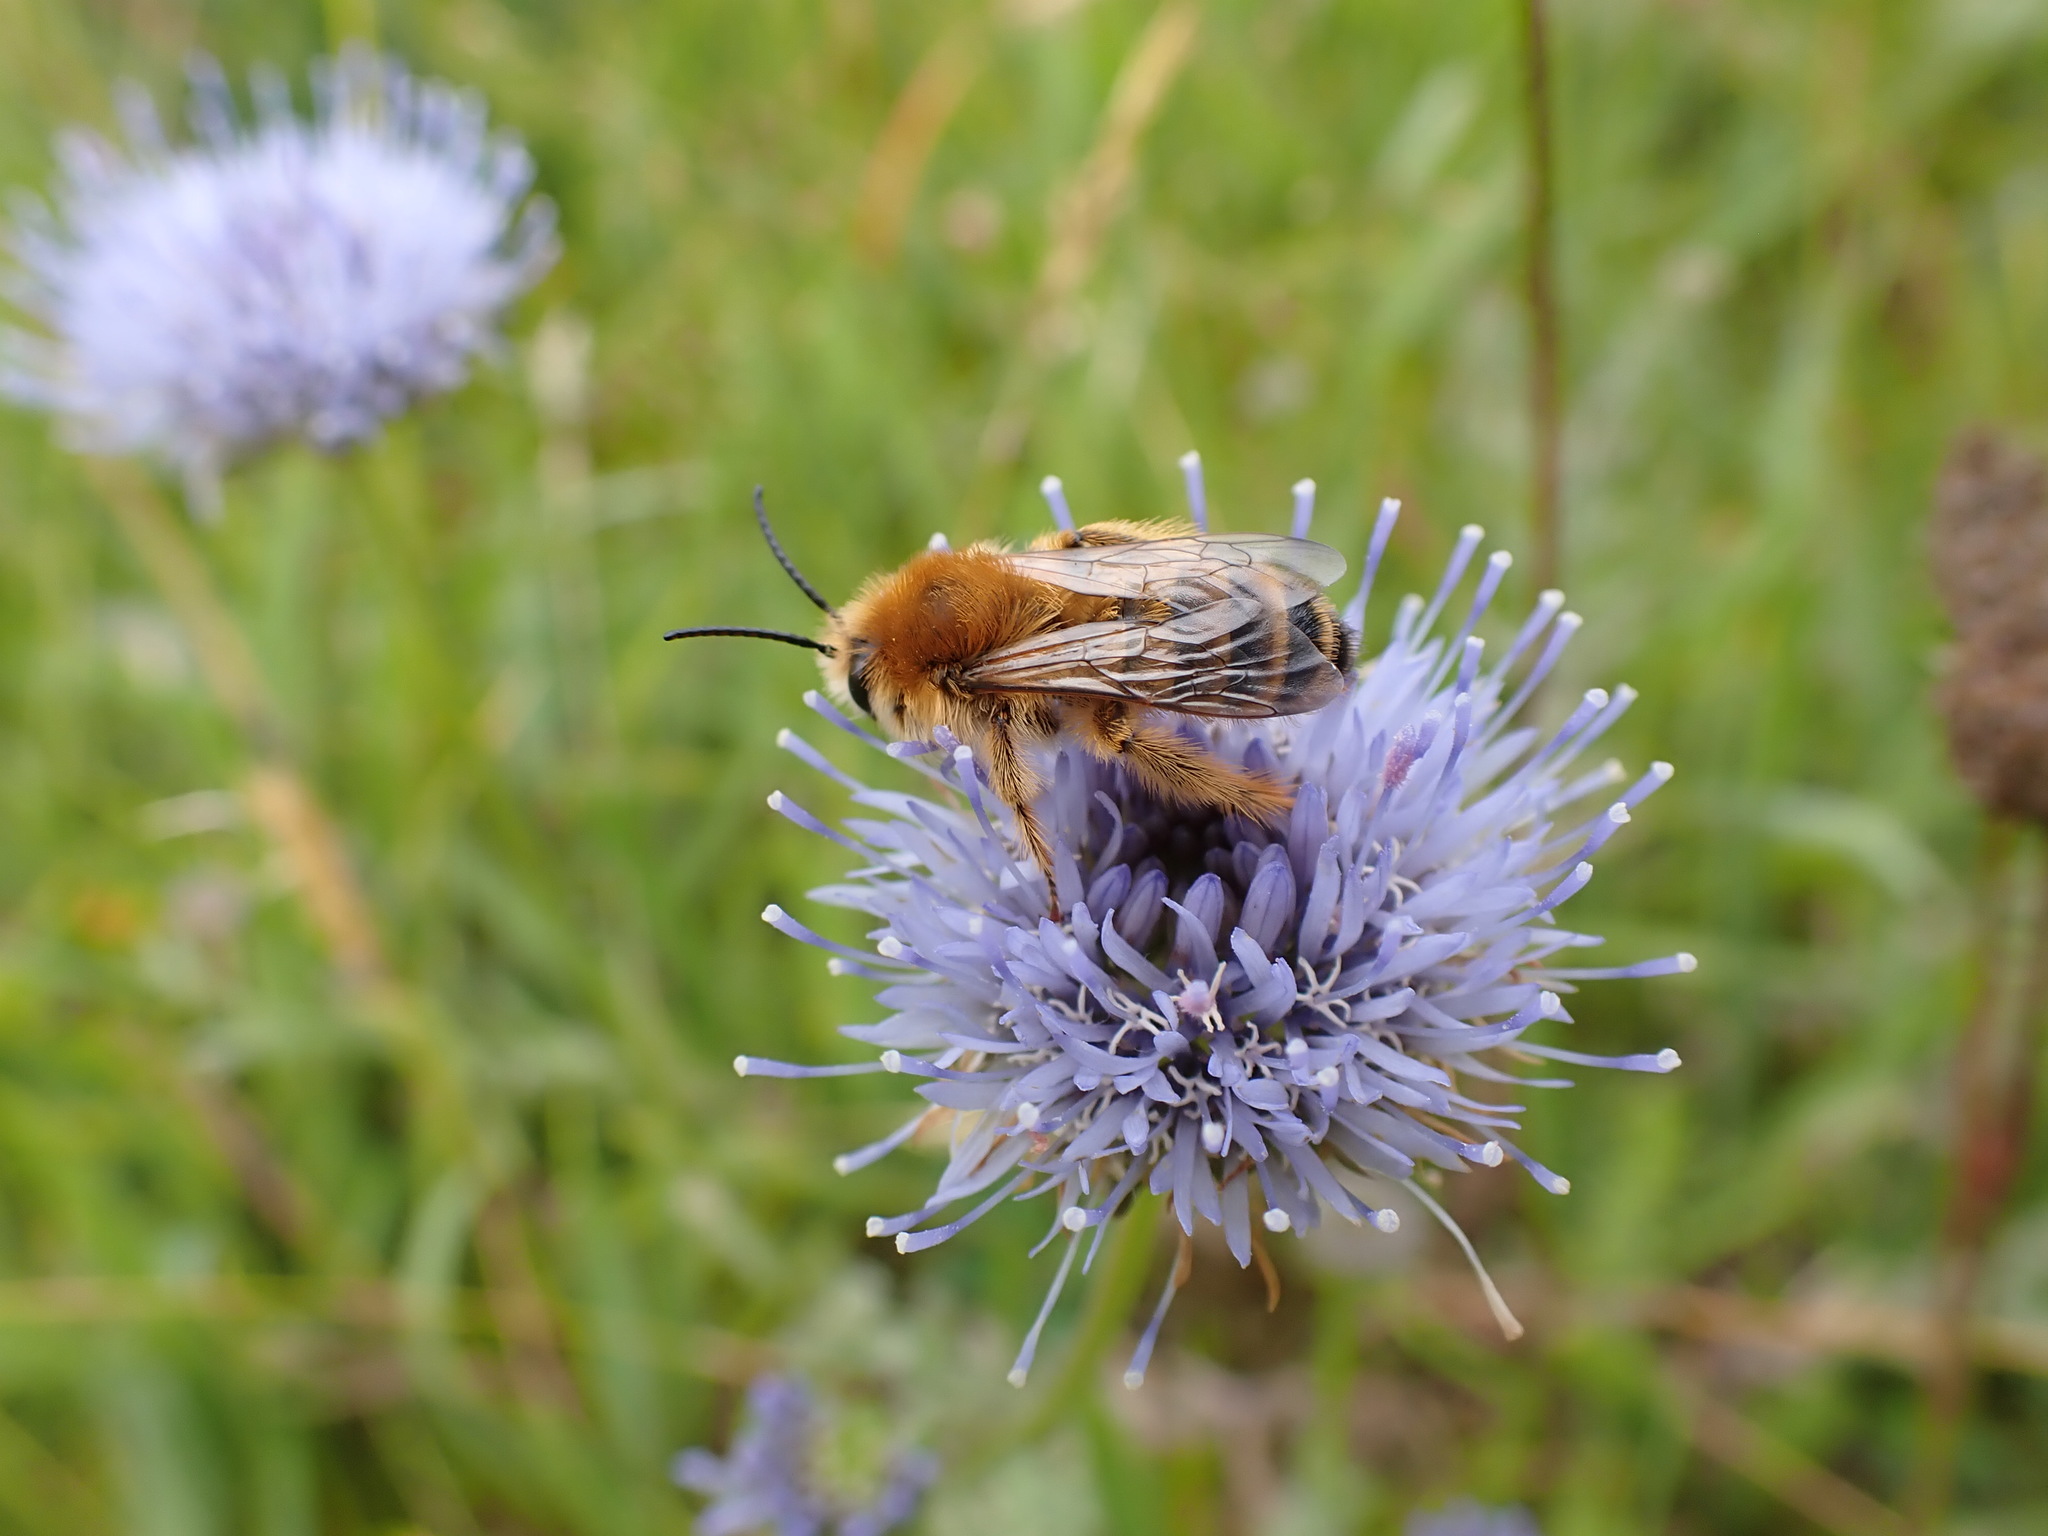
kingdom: Animalia
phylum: Arthropoda
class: Insecta
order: Hymenoptera
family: Melittidae
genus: Dasypoda
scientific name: Dasypoda hirtipes
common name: Pantaloon bee
